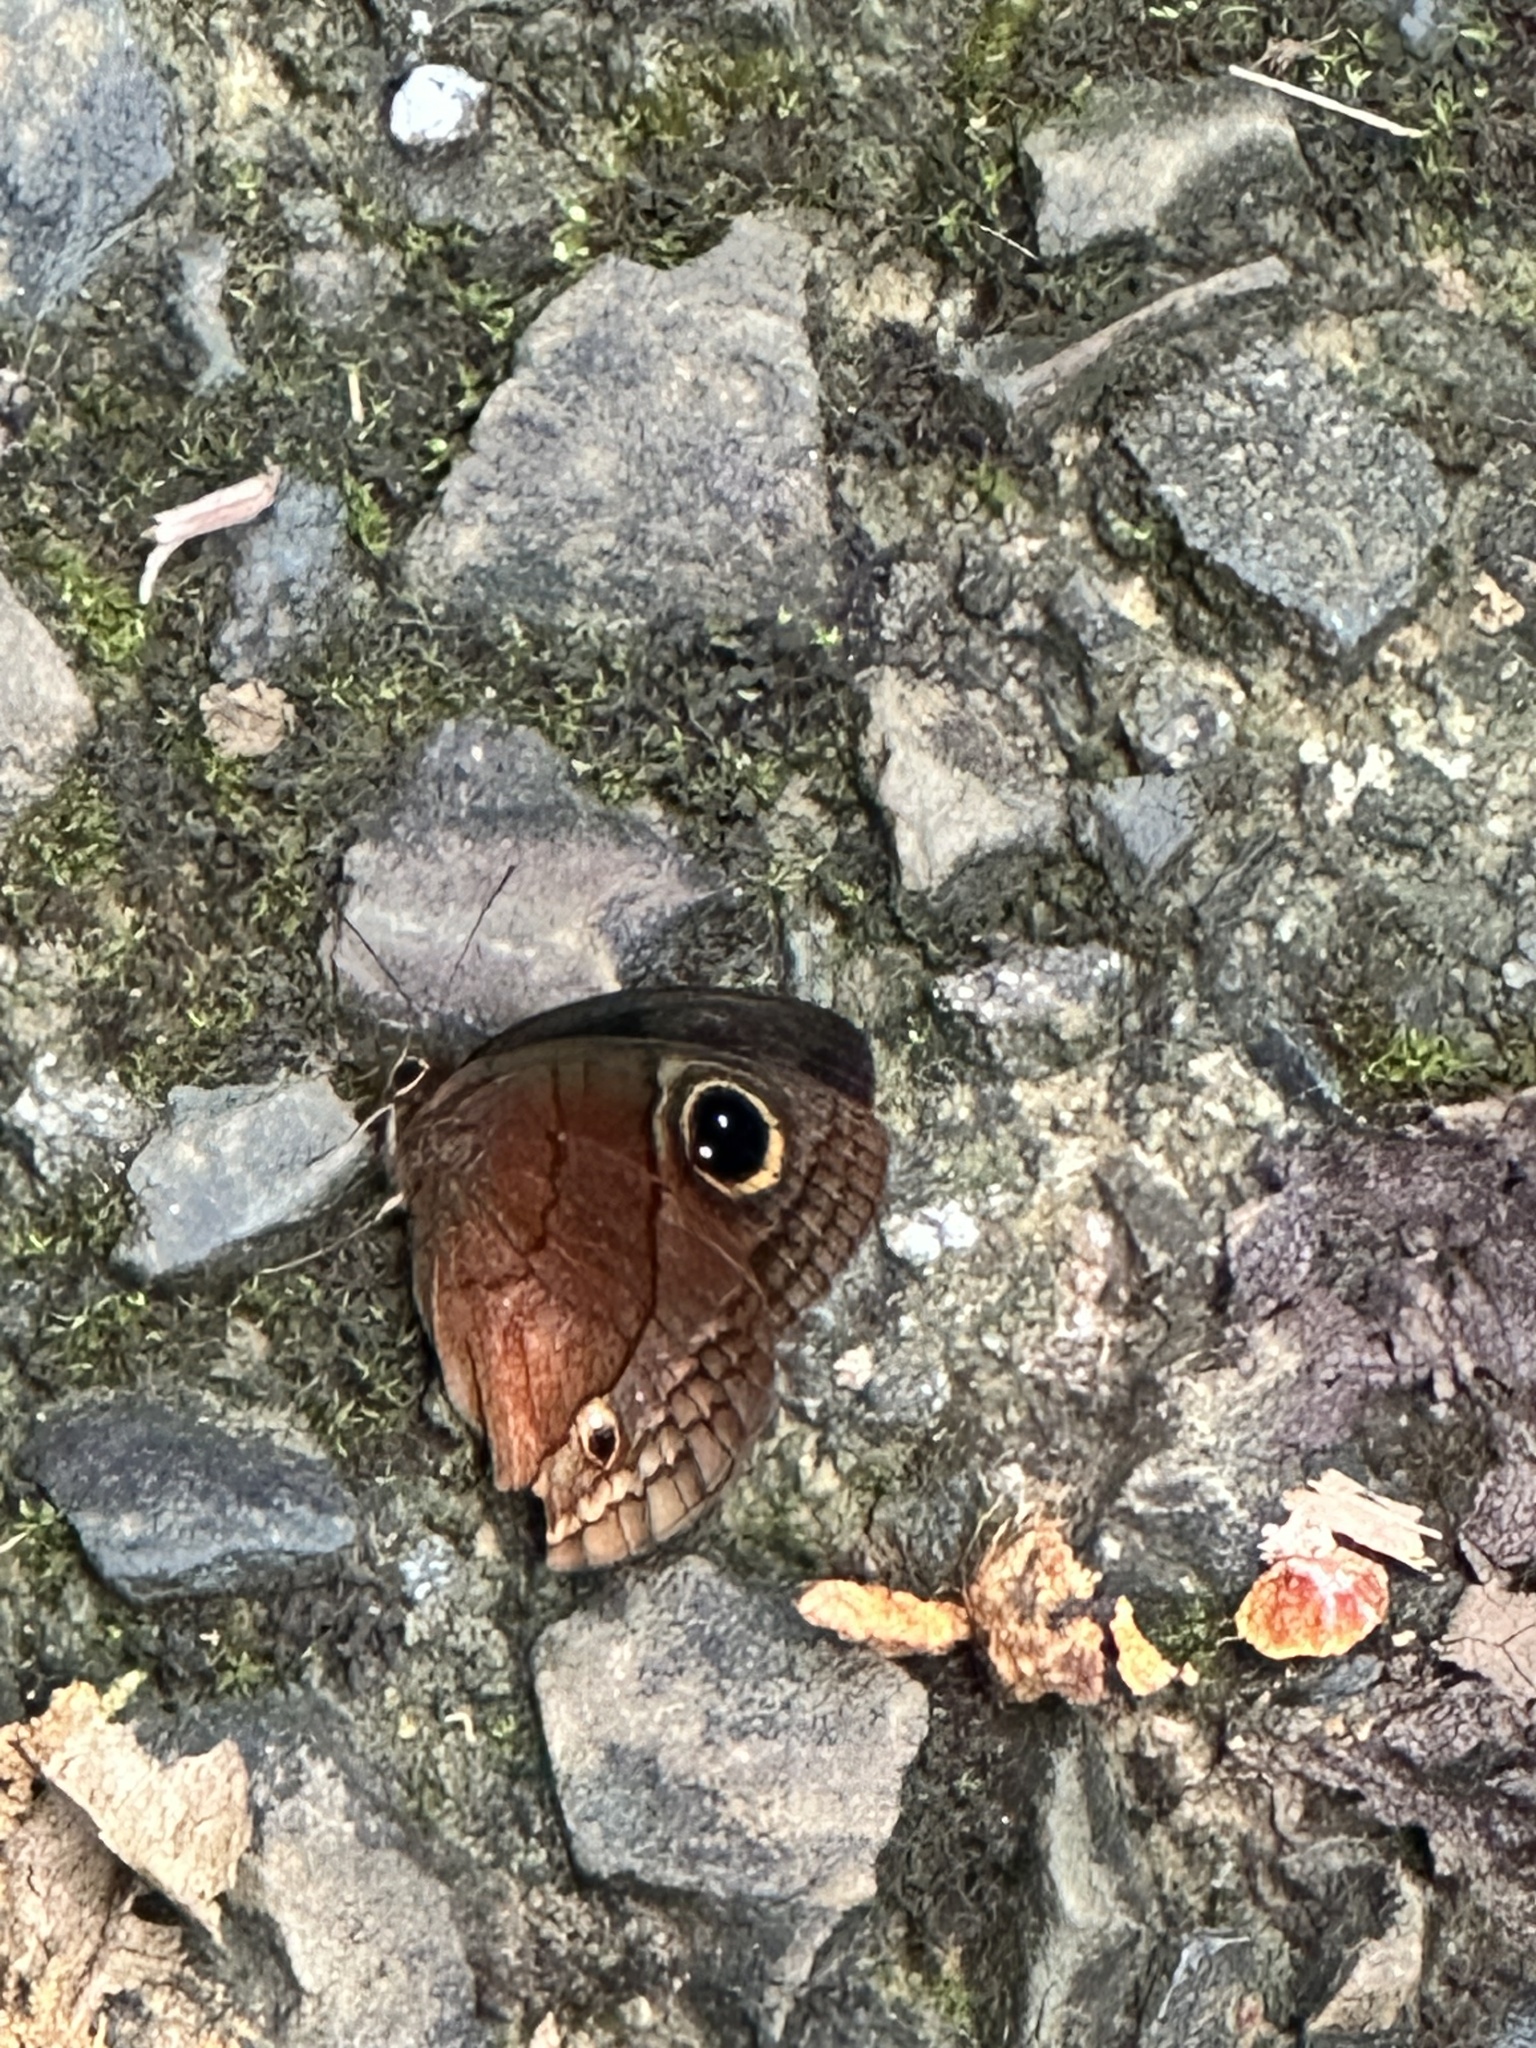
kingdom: Animalia
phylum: Arthropoda
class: Insecta
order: Lepidoptera
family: Nymphalidae
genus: Calisto
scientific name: Calisto nubila
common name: Puerto rican calisto
